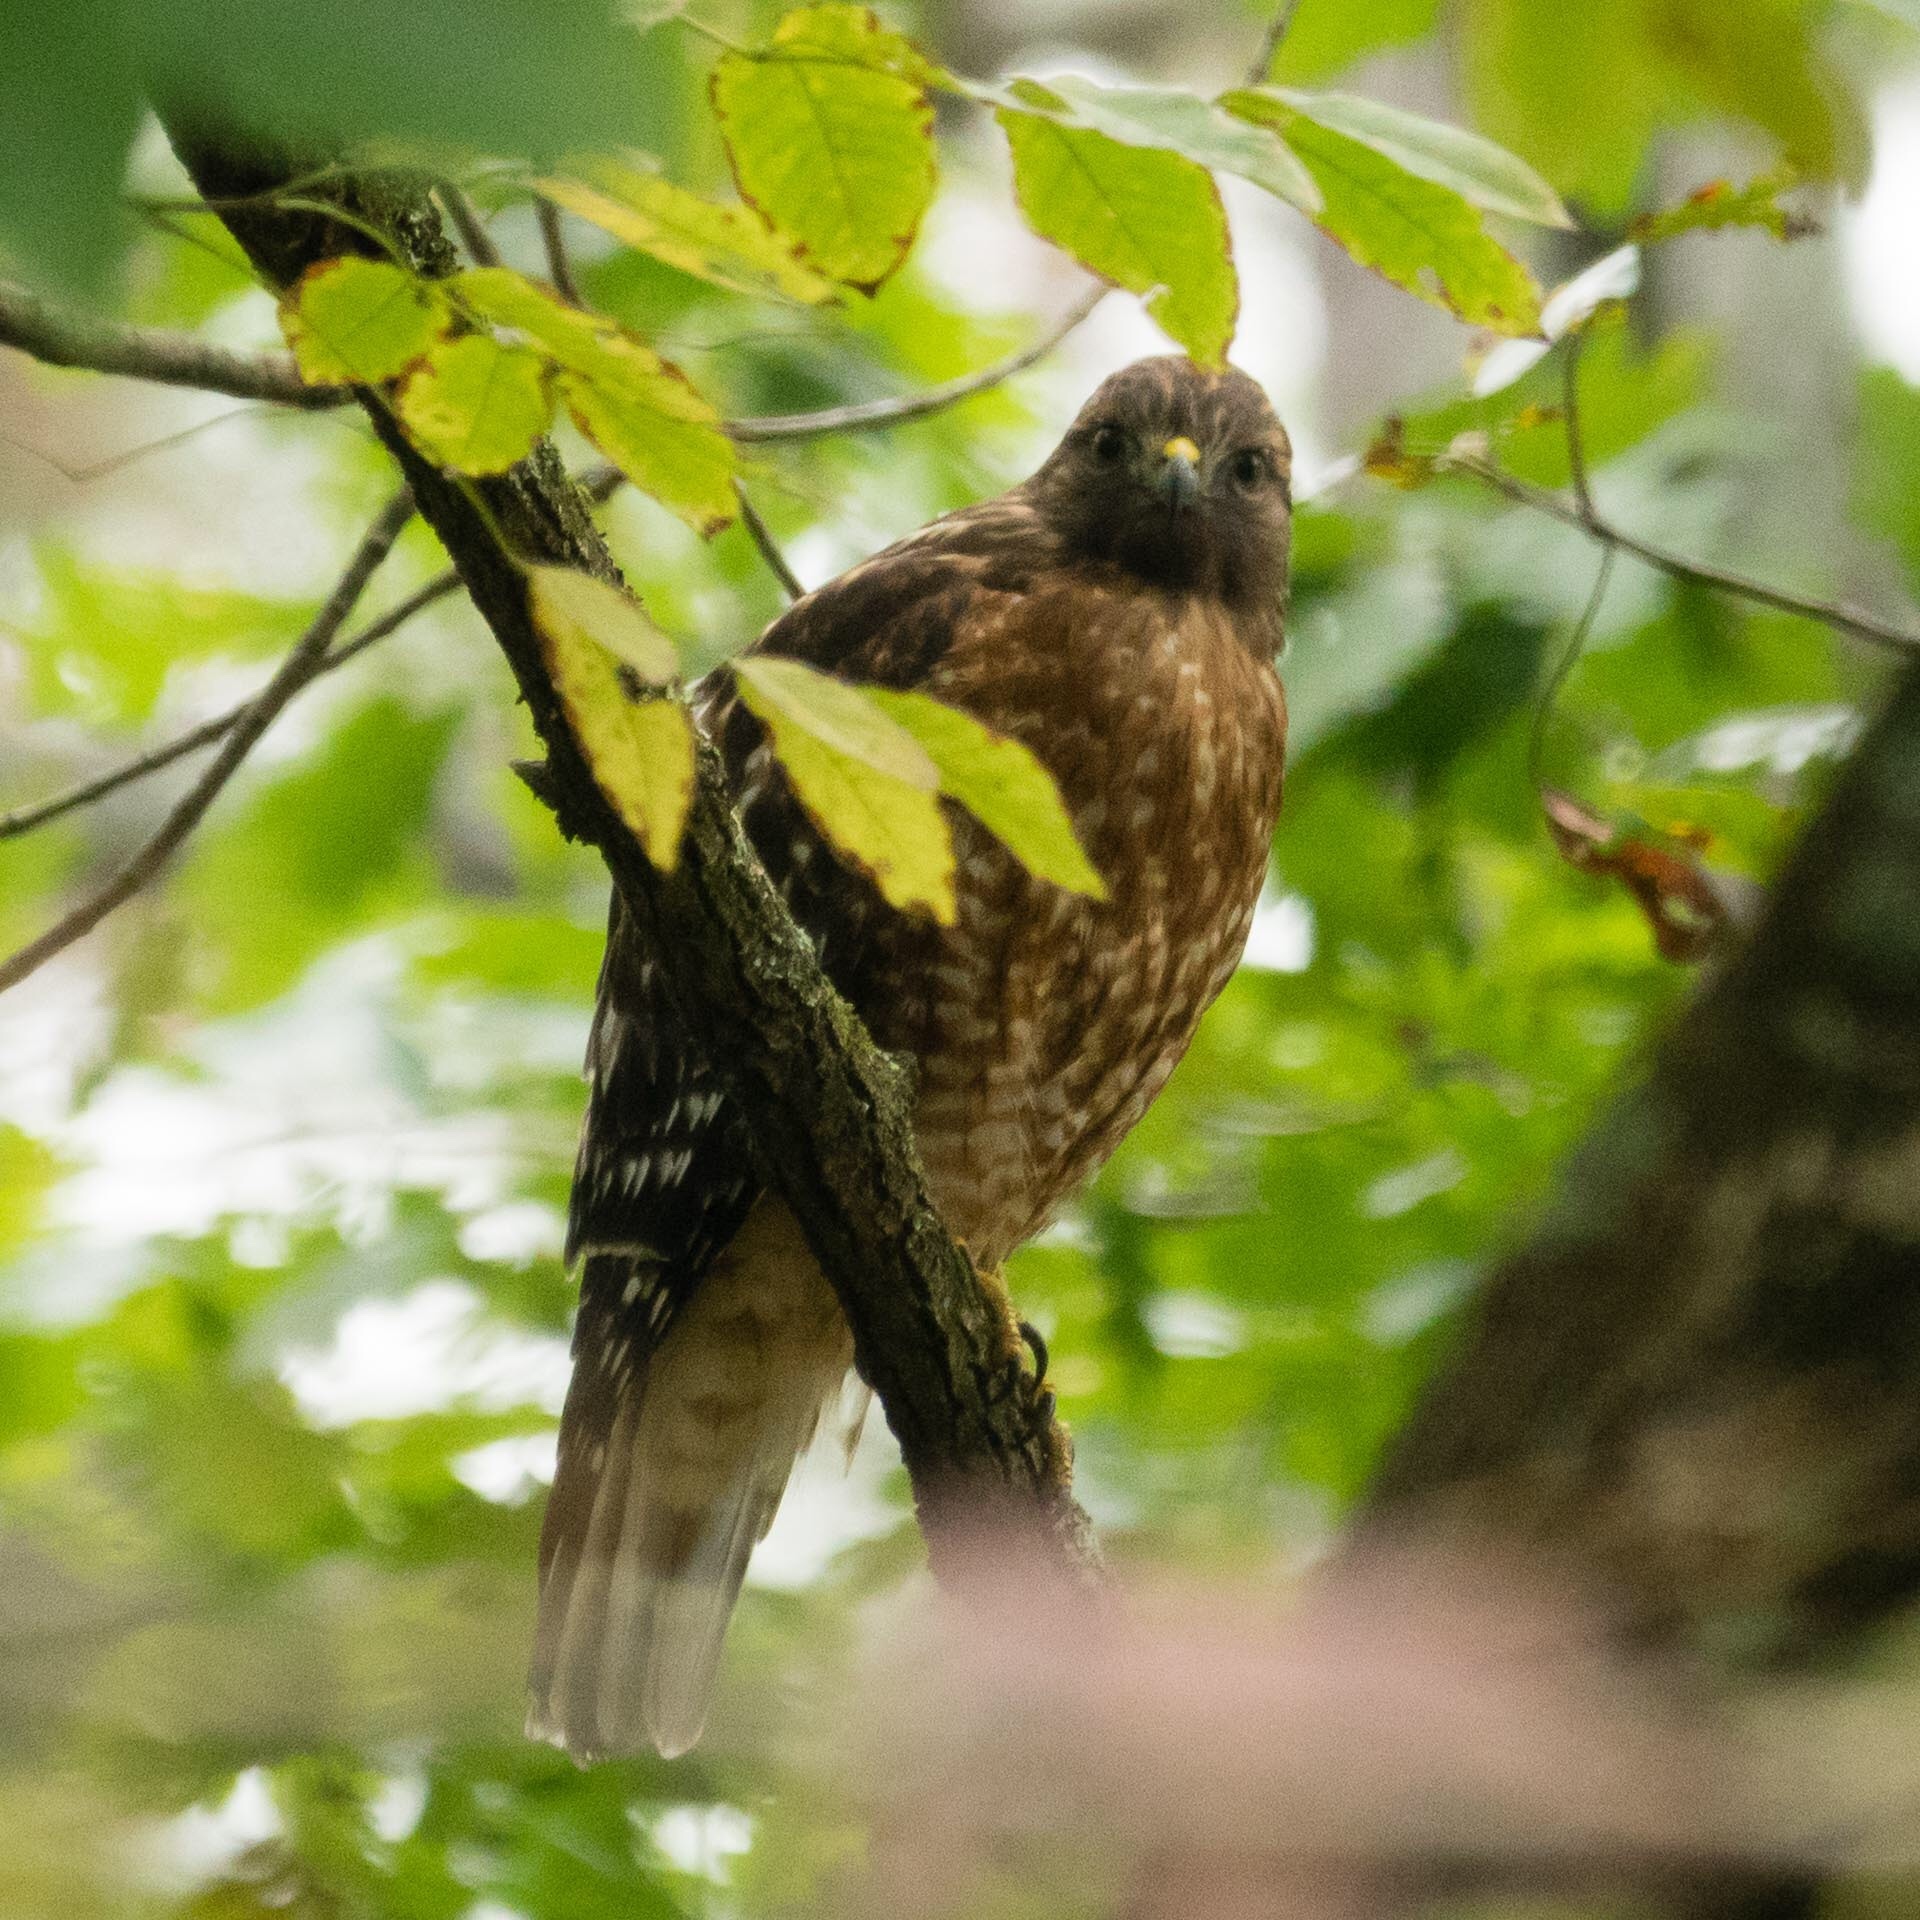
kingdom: Animalia
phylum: Chordata
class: Aves
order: Accipitriformes
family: Accipitridae
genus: Buteo
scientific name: Buteo lineatus
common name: Red-shouldered hawk
